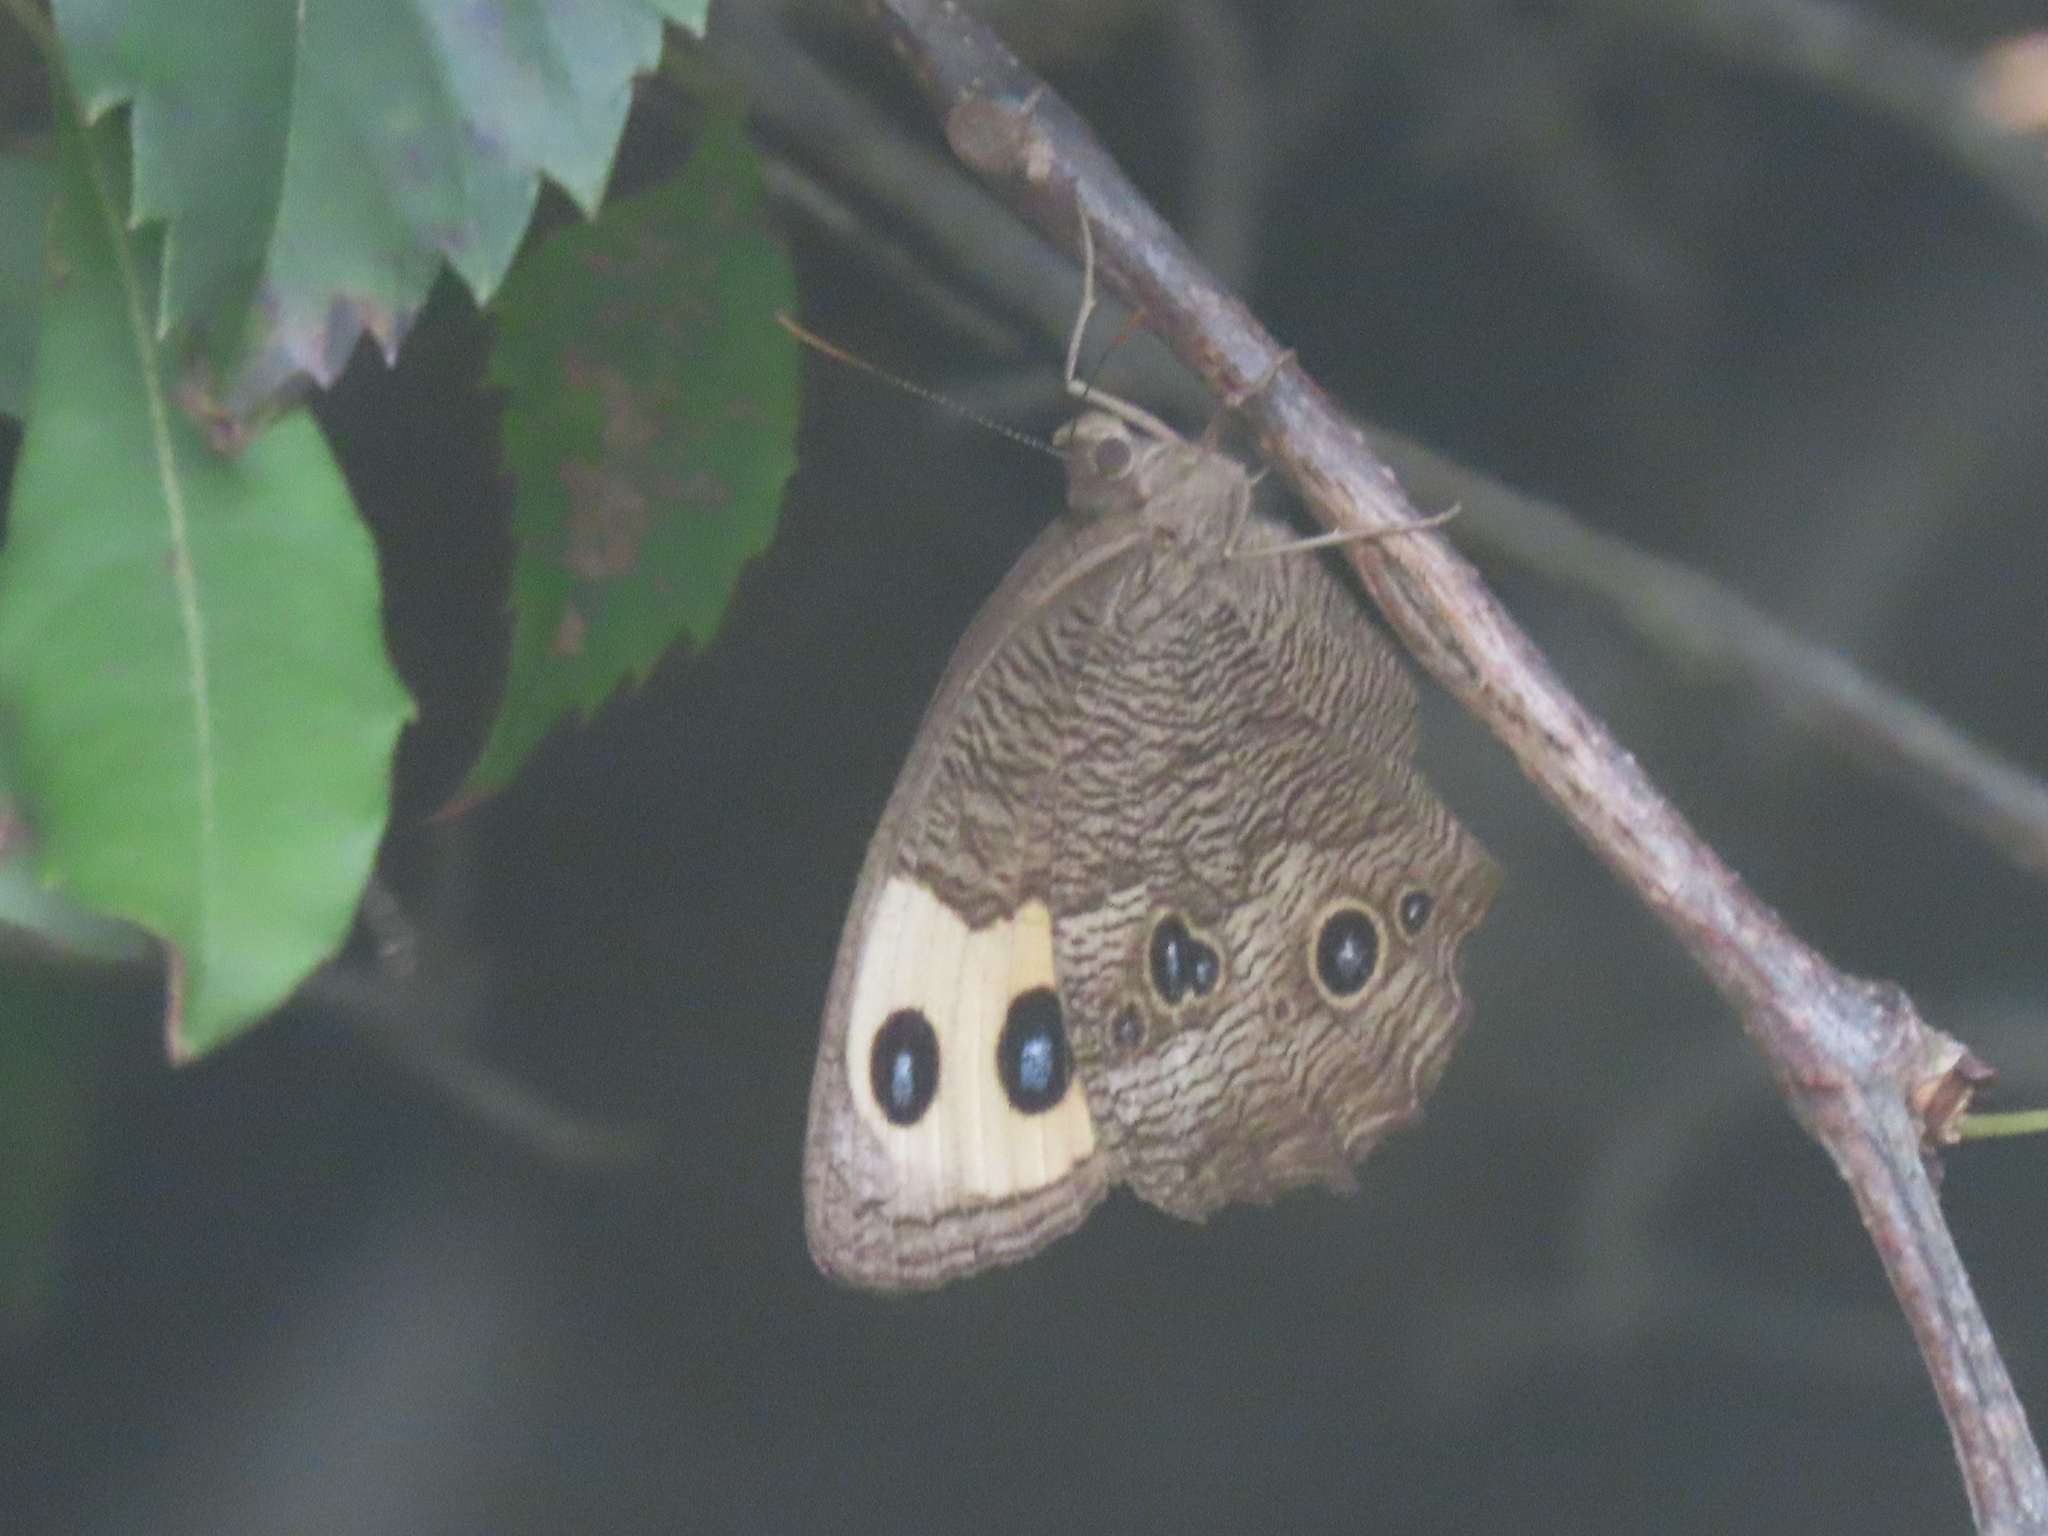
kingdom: Animalia
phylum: Arthropoda
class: Insecta
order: Lepidoptera
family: Nymphalidae
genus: Cercyonis
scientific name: Cercyonis pegala
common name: Common wood-nymph
